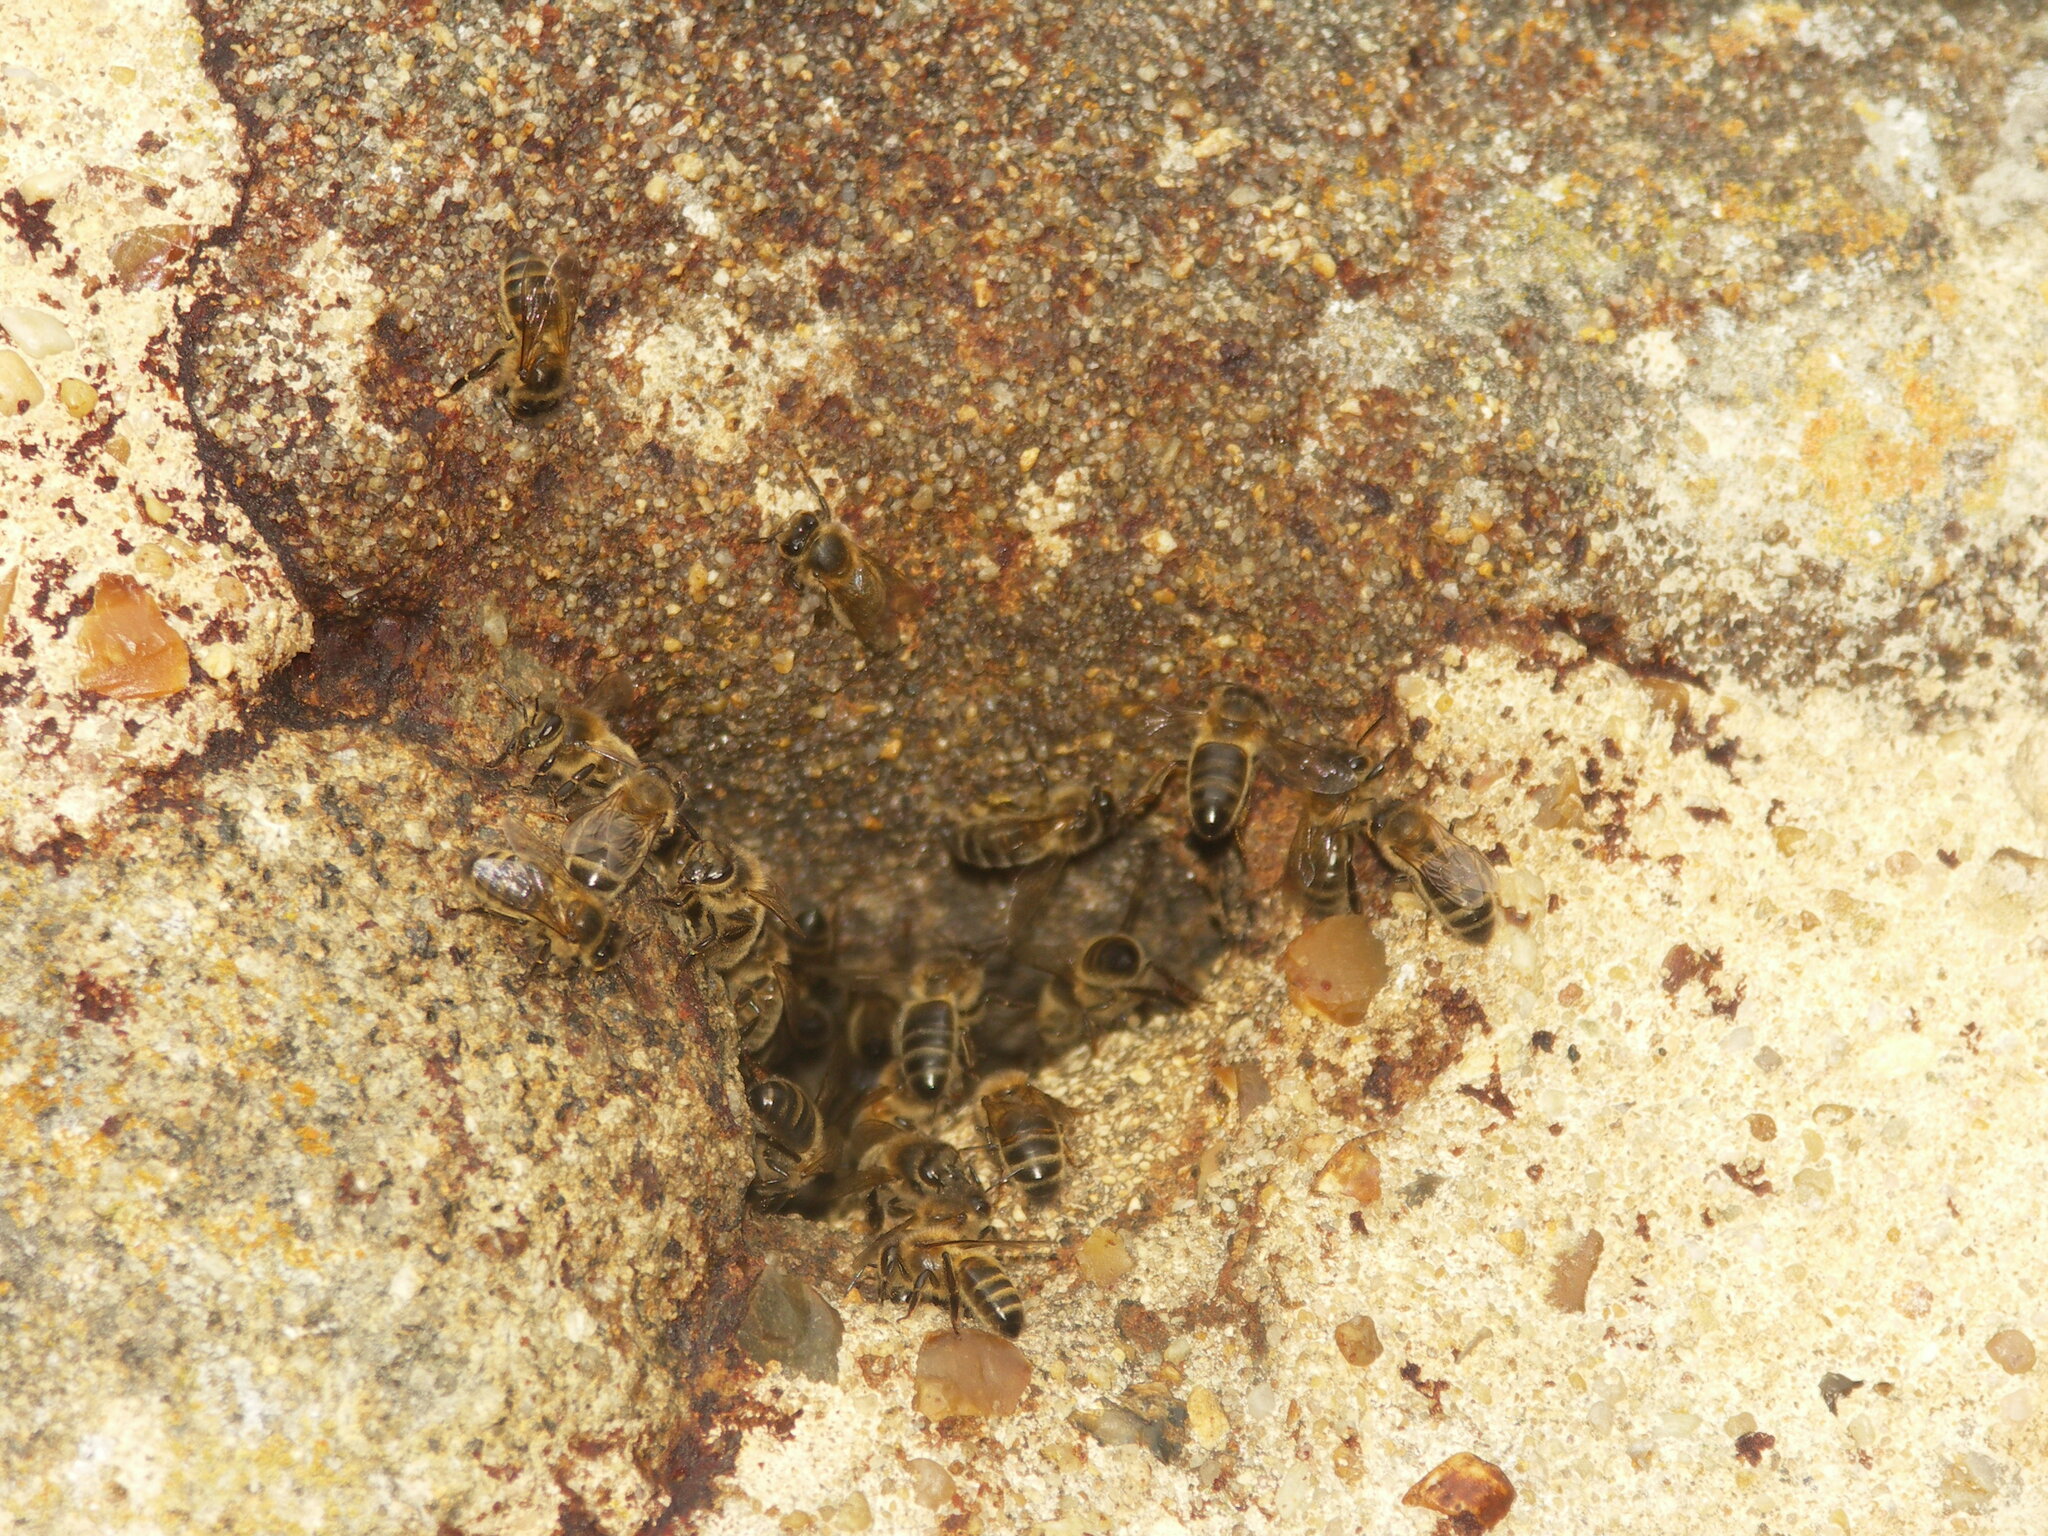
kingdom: Animalia
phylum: Arthropoda
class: Insecta
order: Hymenoptera
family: Apidae
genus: Apis
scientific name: Apis mellifera
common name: Honey bee
